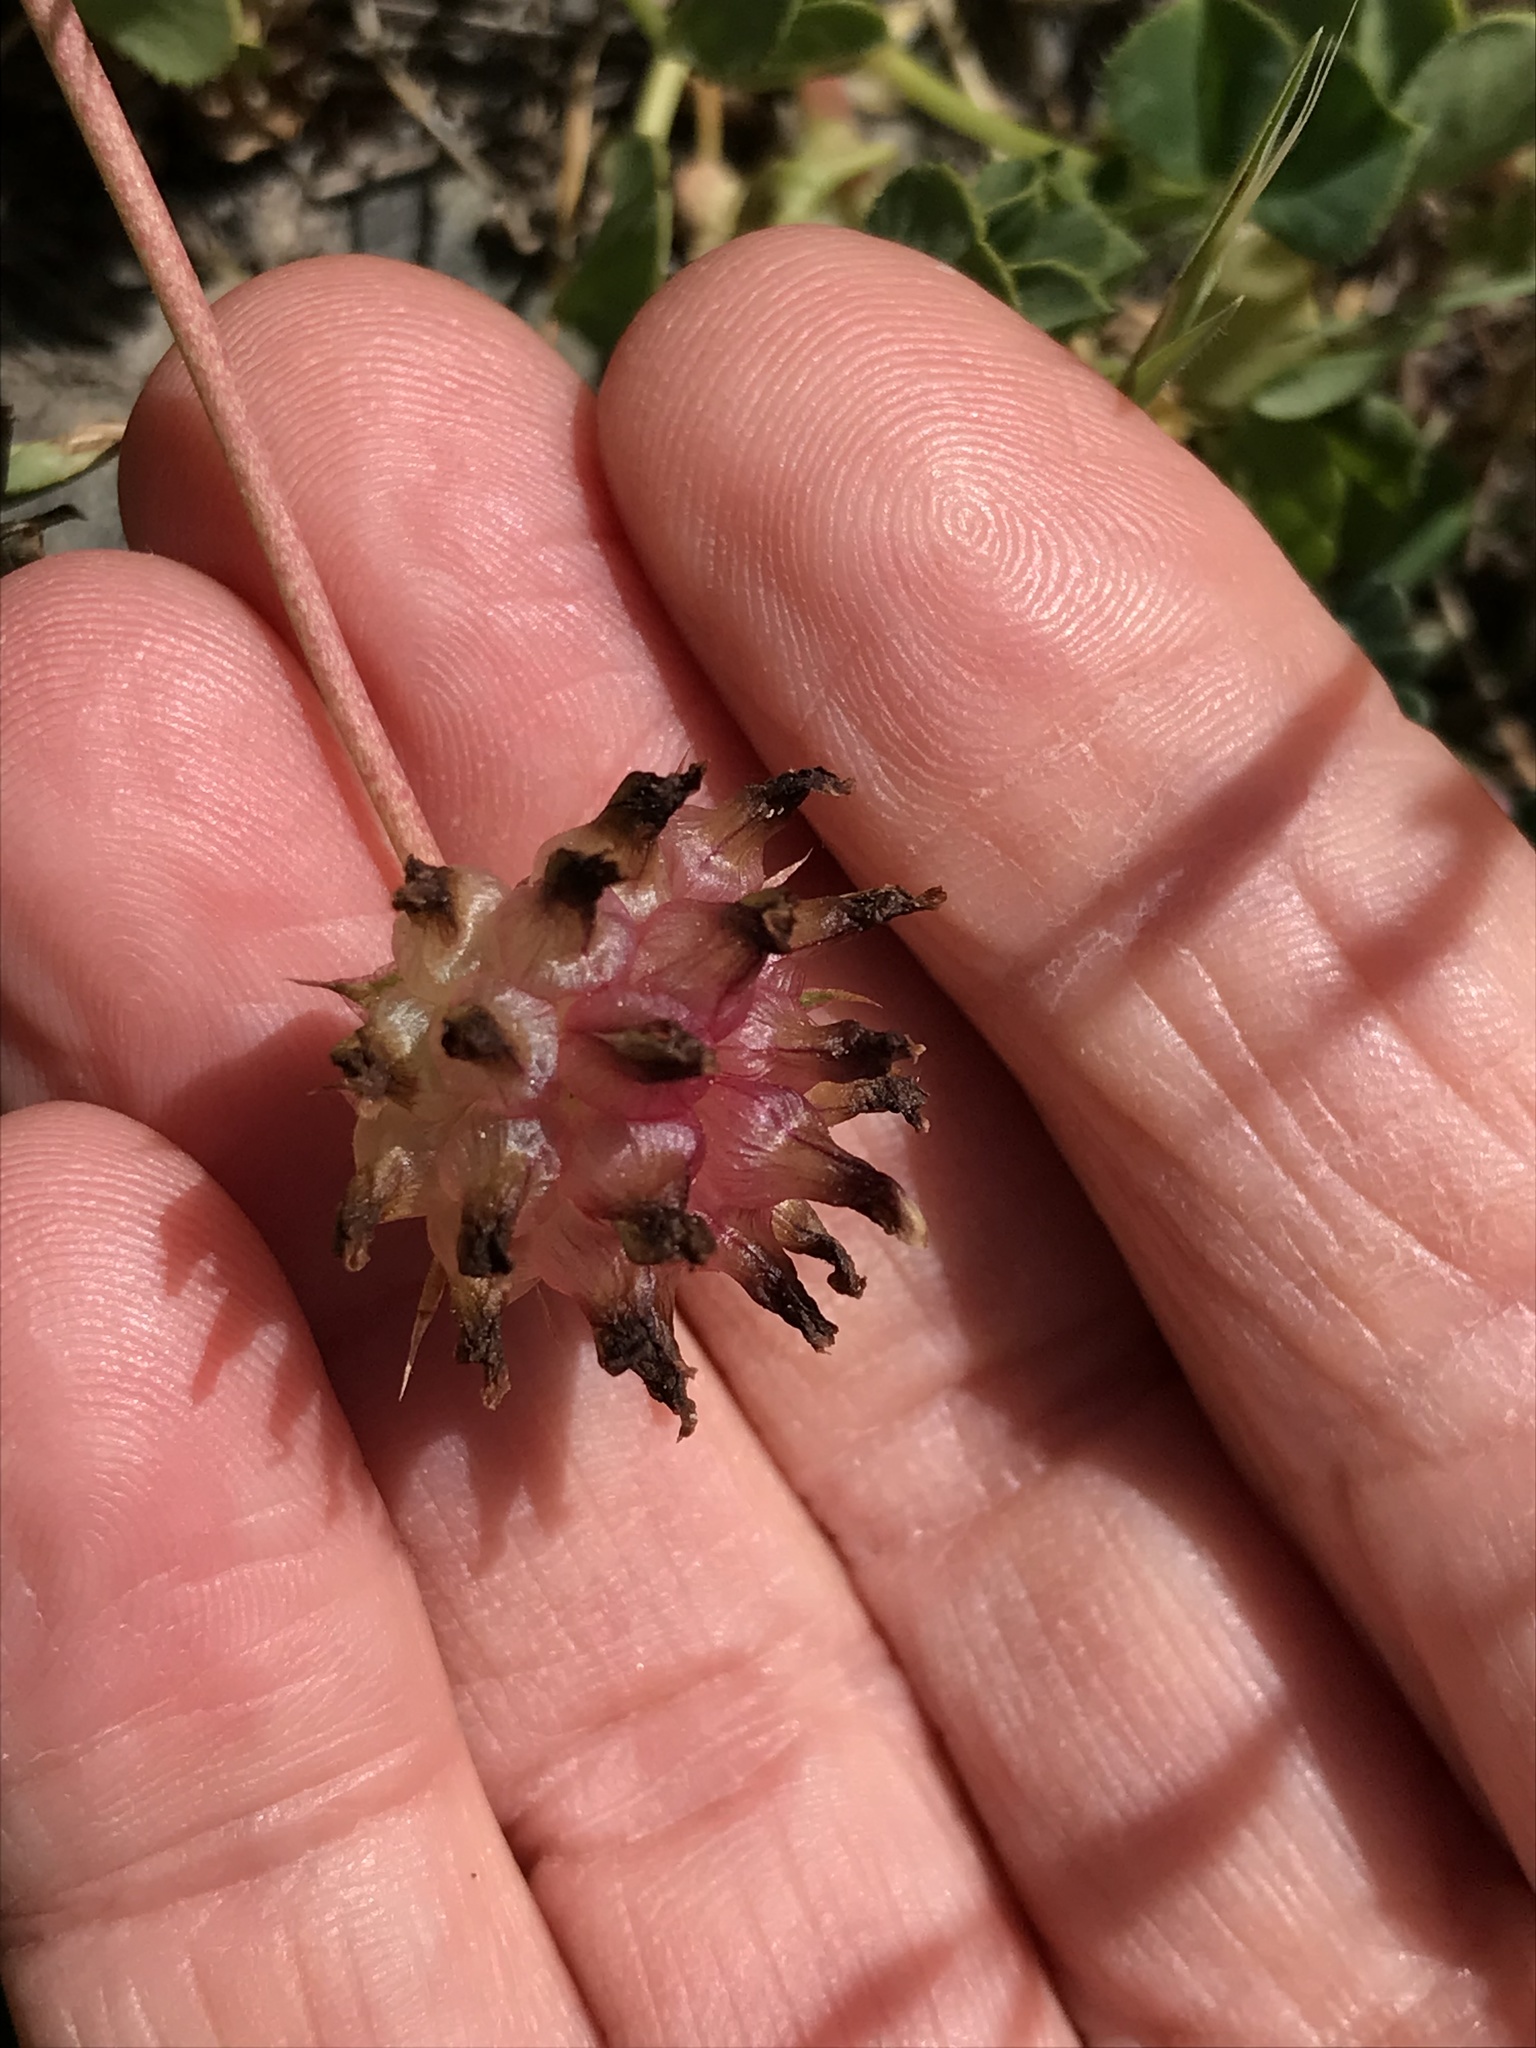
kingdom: Plantae
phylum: Tracheophyta
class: Magnoliopsida
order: Fabales
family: Fabaceae
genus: Trifolium
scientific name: Trifolium fucatum
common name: Puff clover
